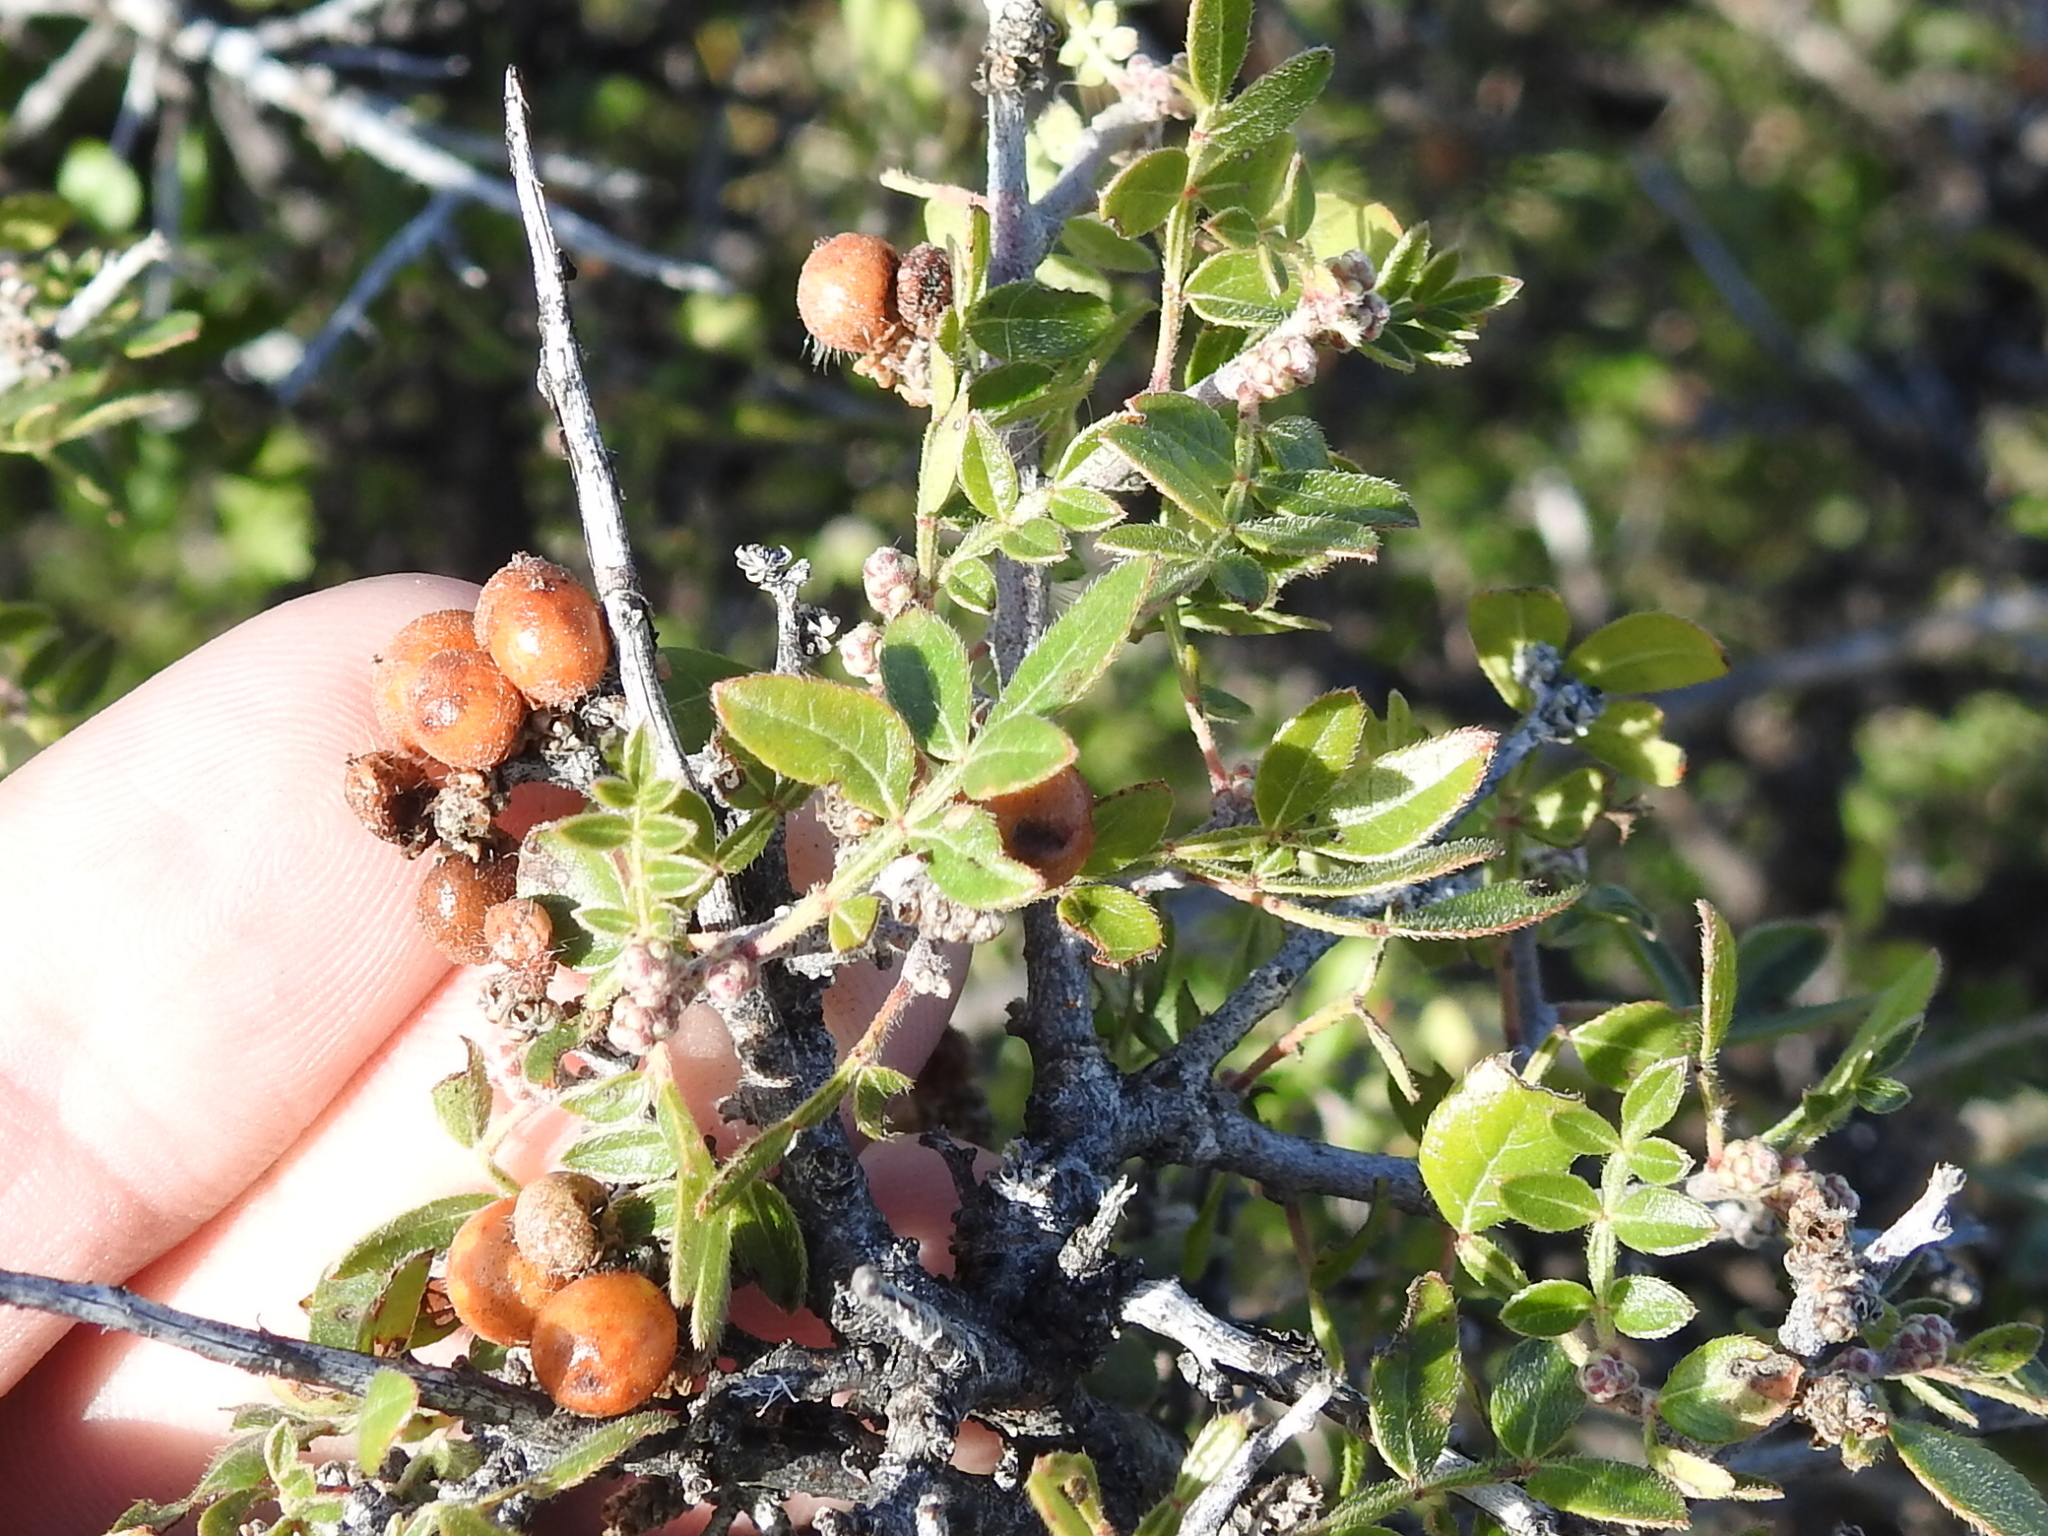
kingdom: Plantae
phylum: Tracheophyta
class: Magnoliopsida
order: Sapindales
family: Anacardiaceae
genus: Rhus
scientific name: Rhus microphylla
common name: Desert sumac
